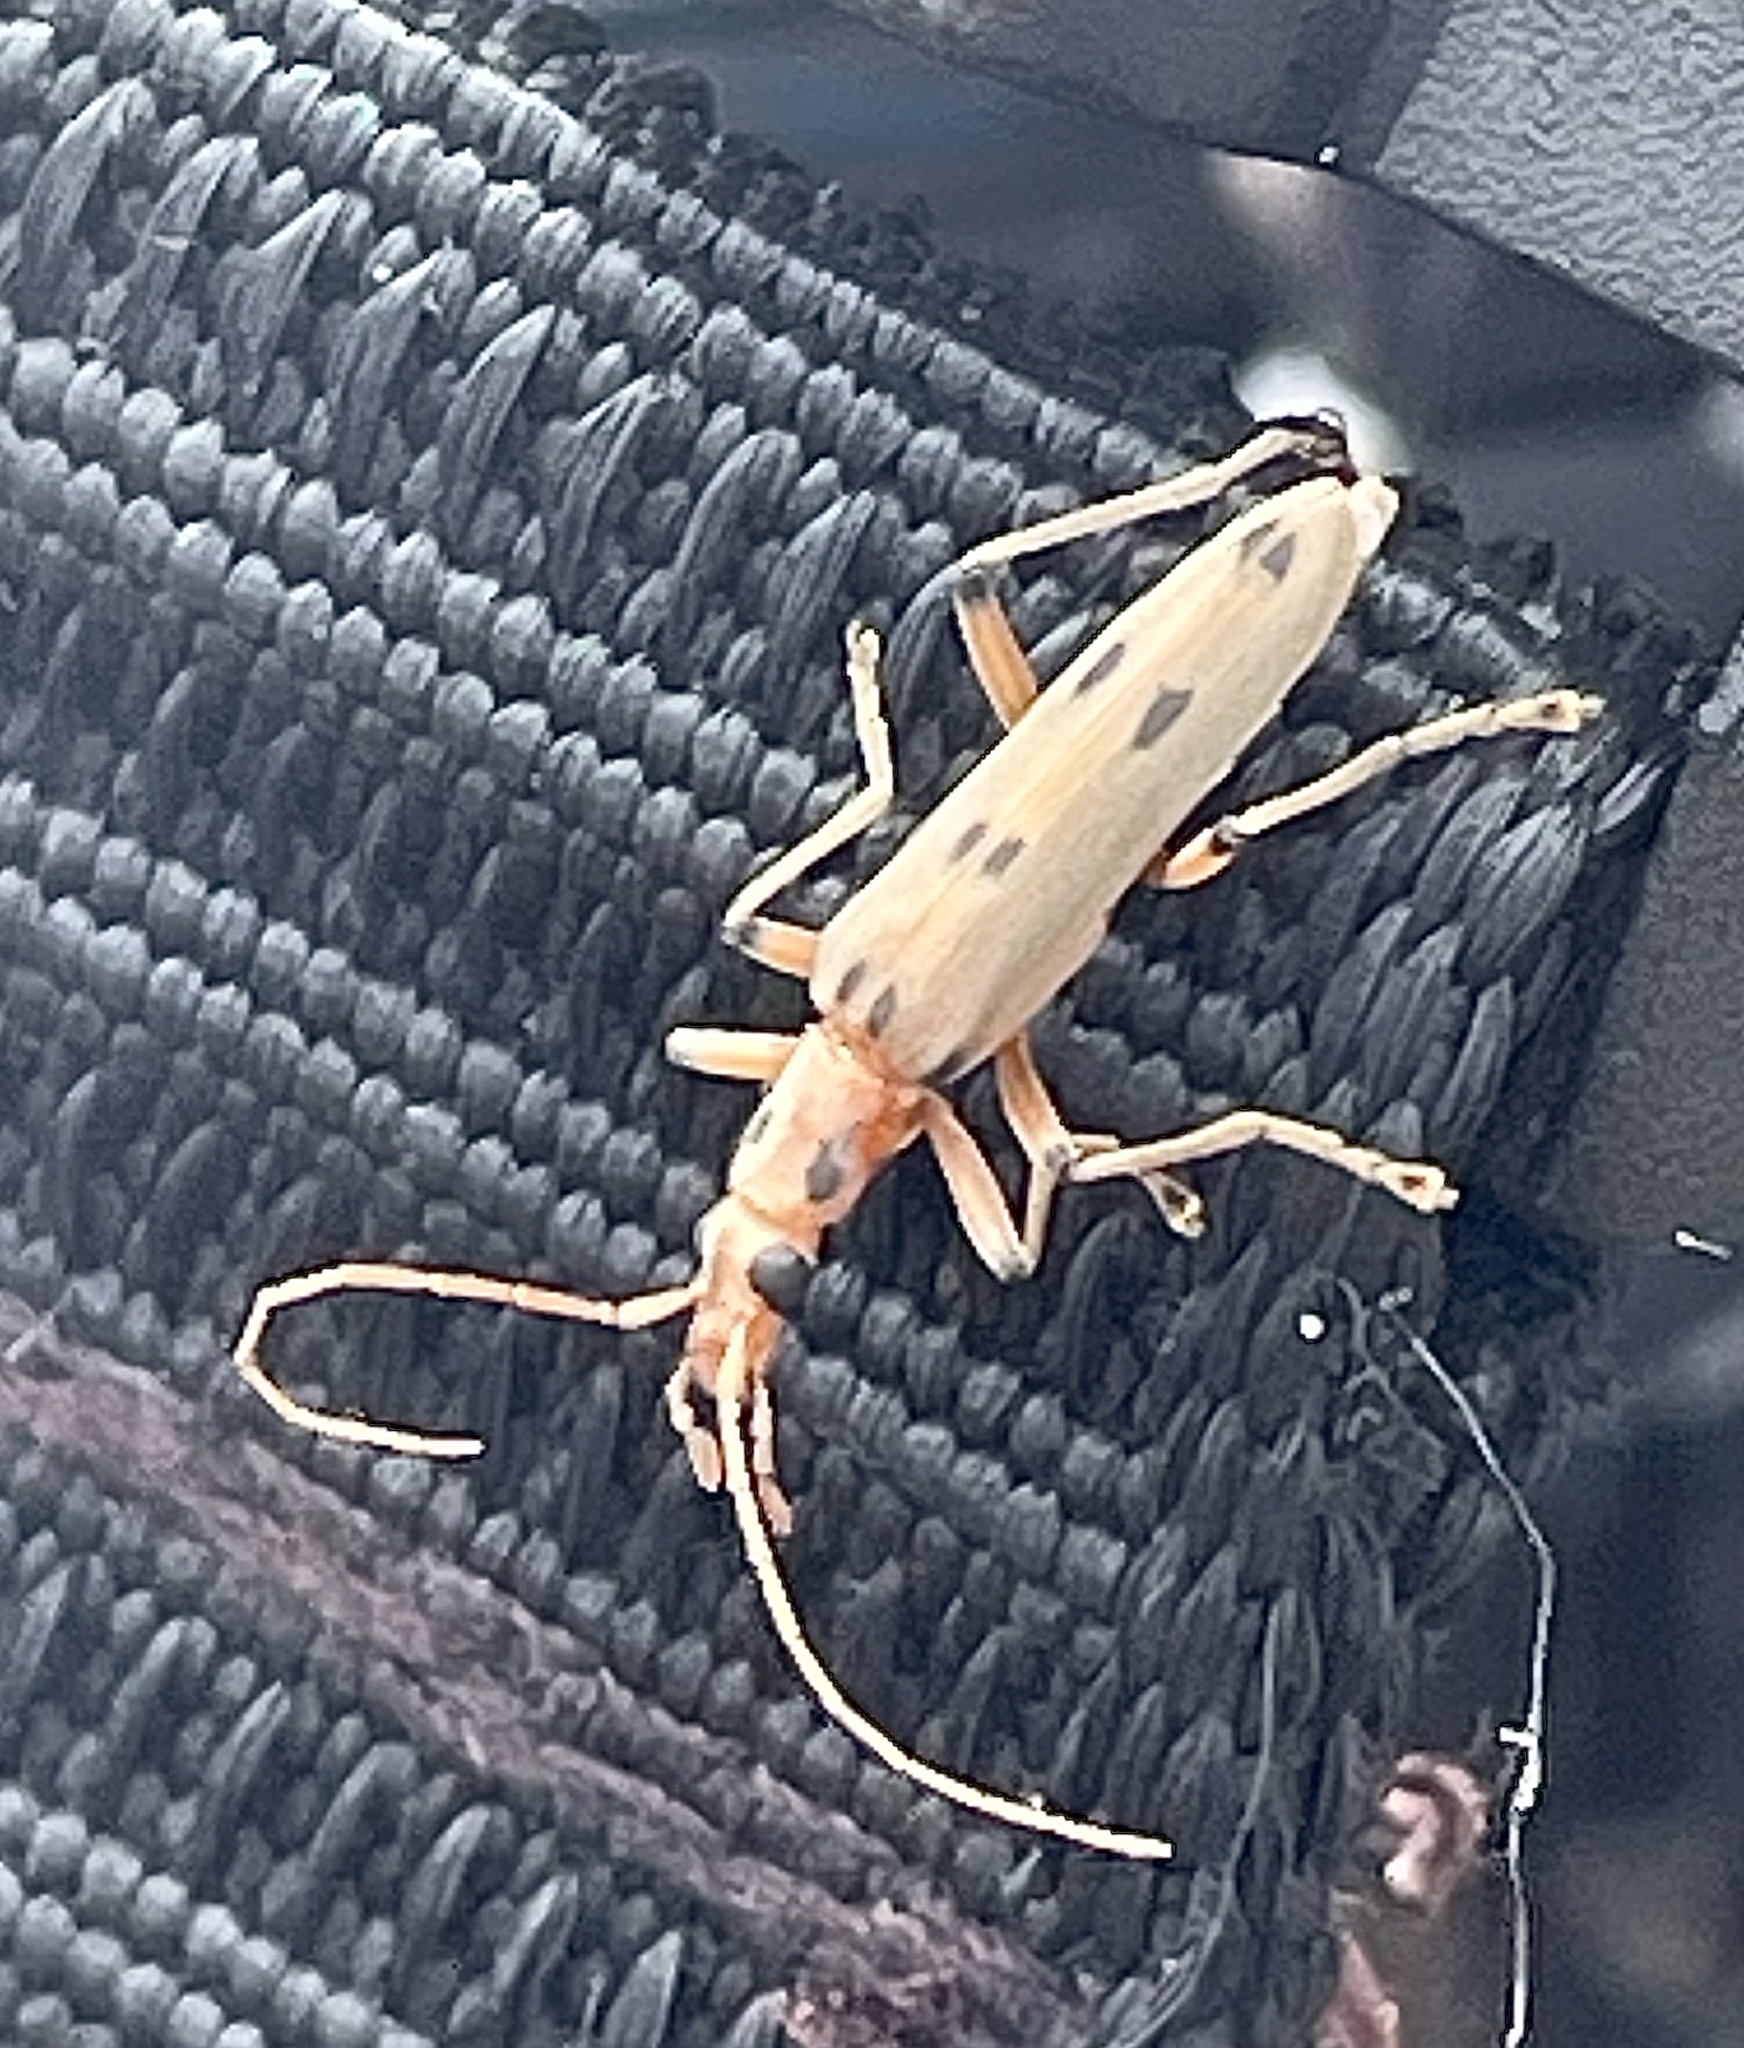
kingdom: Animalia
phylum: Arthropoda
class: Insecta
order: Coleoptera
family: Oedemeridae
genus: Parisopalpus
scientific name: Parisopalpus
